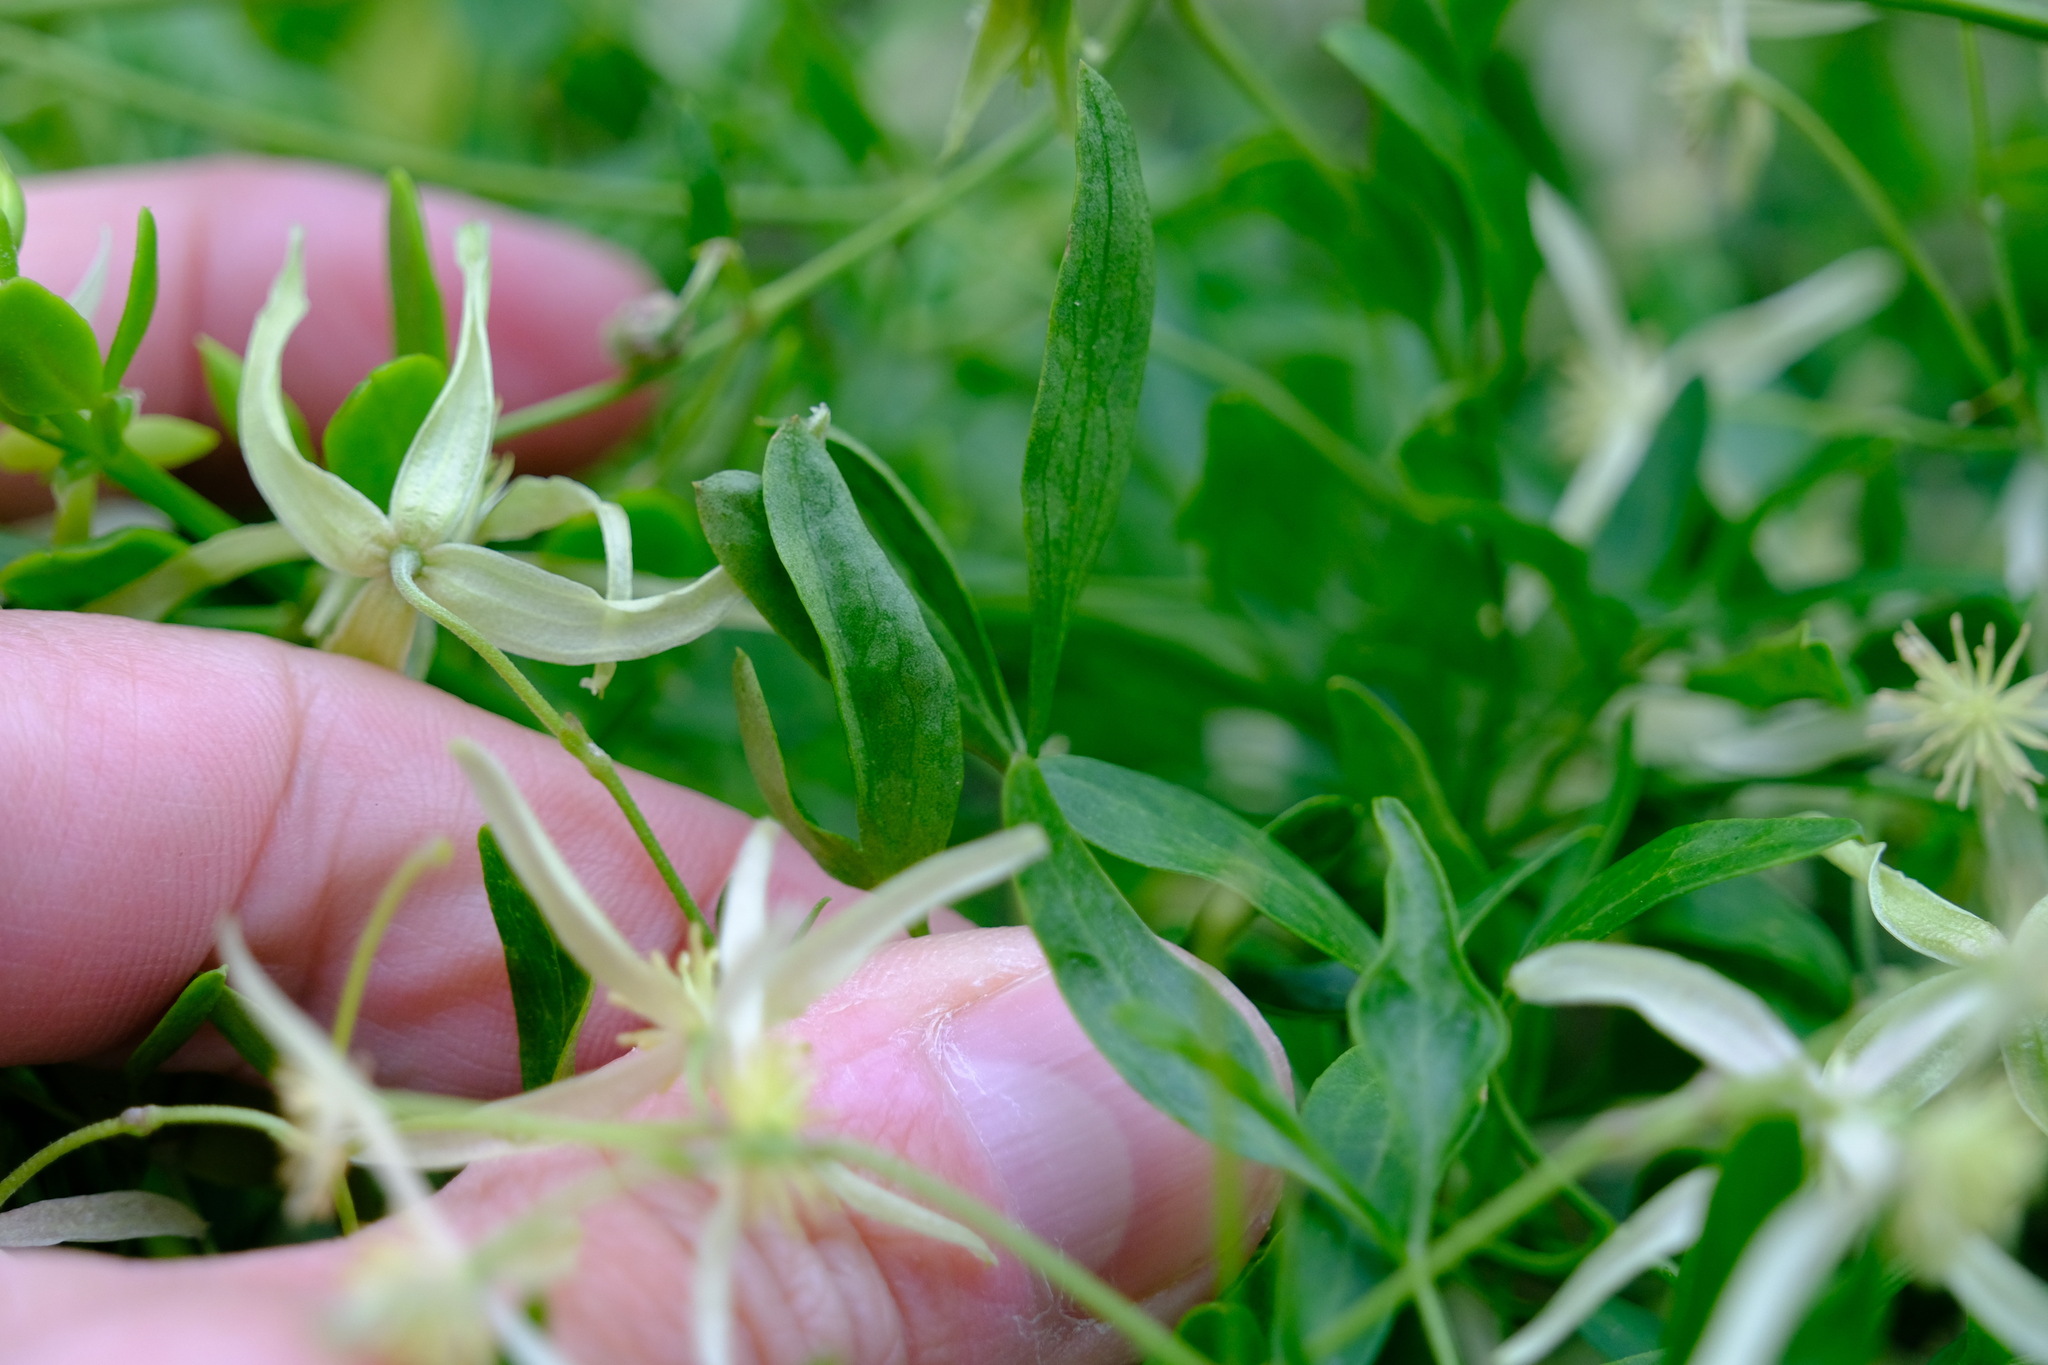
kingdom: Plantae
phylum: Tracheophyta
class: Magnoliopsida
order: Ranunculales
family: Ranunculaceae
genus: Clematis
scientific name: Clematis microphylla
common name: Headachevine
